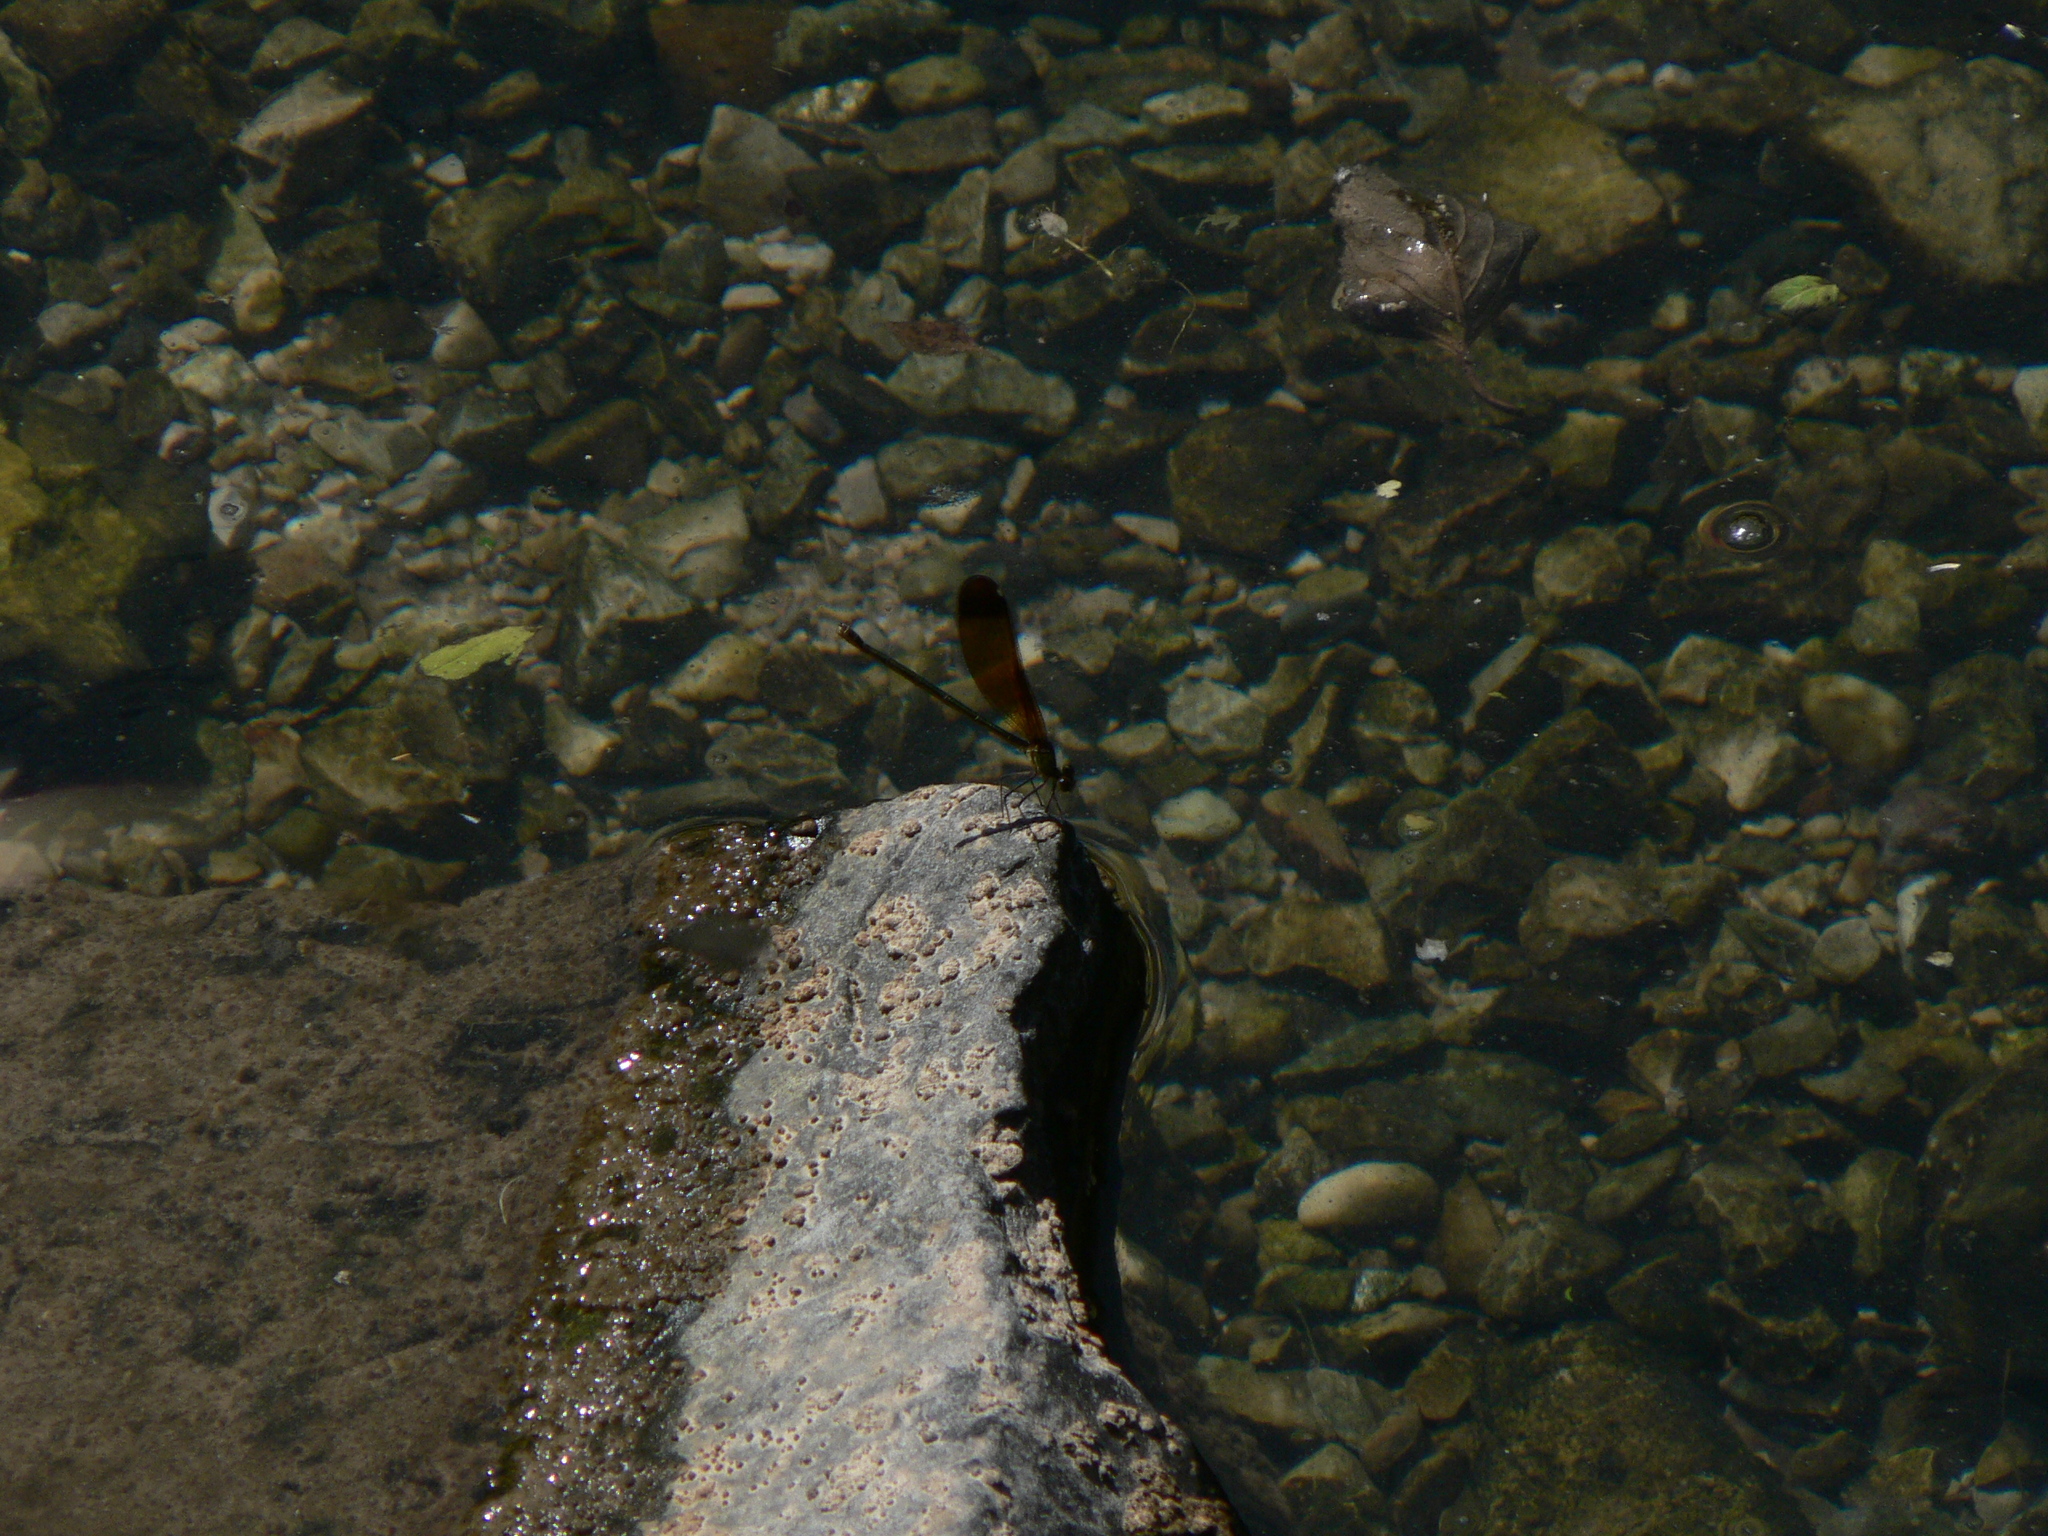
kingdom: Animalia
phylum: Arthropoda
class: Insecta
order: Odonata
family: Calopterygidae
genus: Calopteryx
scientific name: Calopteryx haemorrhoidalis
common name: Copper demoiselle
